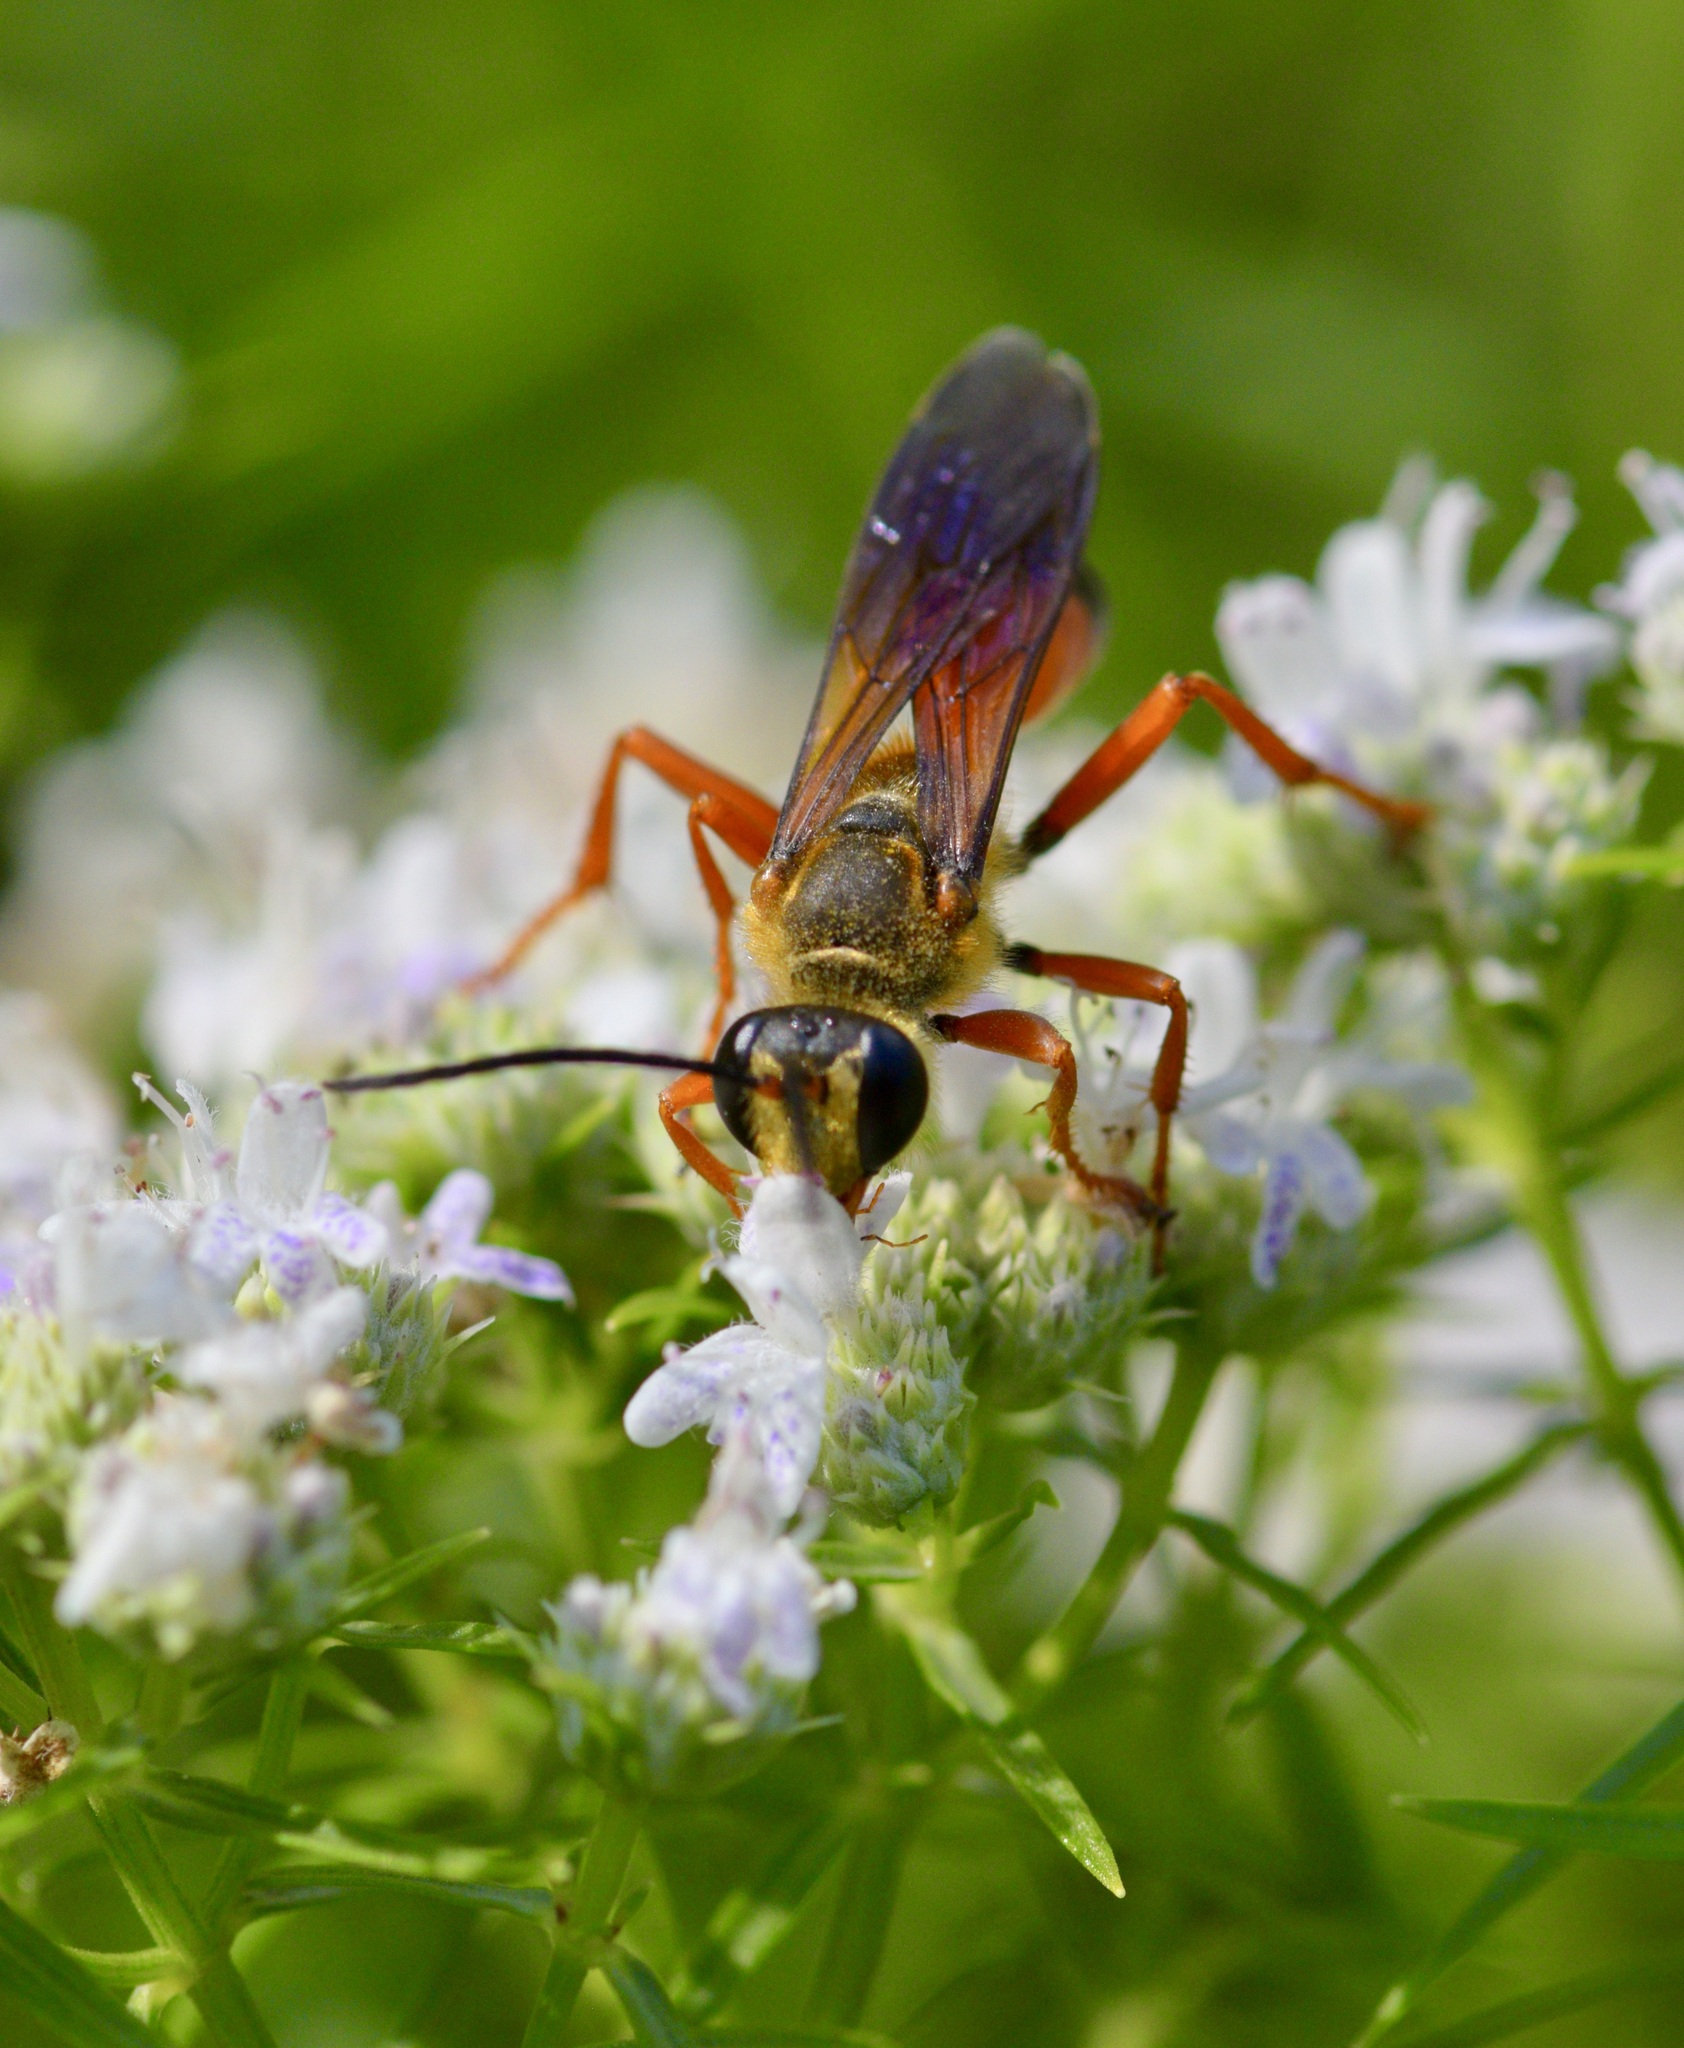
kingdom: Animalia
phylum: Arthropoda
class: Insecta
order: Hymenoptera
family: Sphecidae
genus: Sphex
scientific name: Sphex ichneumoneus
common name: Great golden digger wasp
